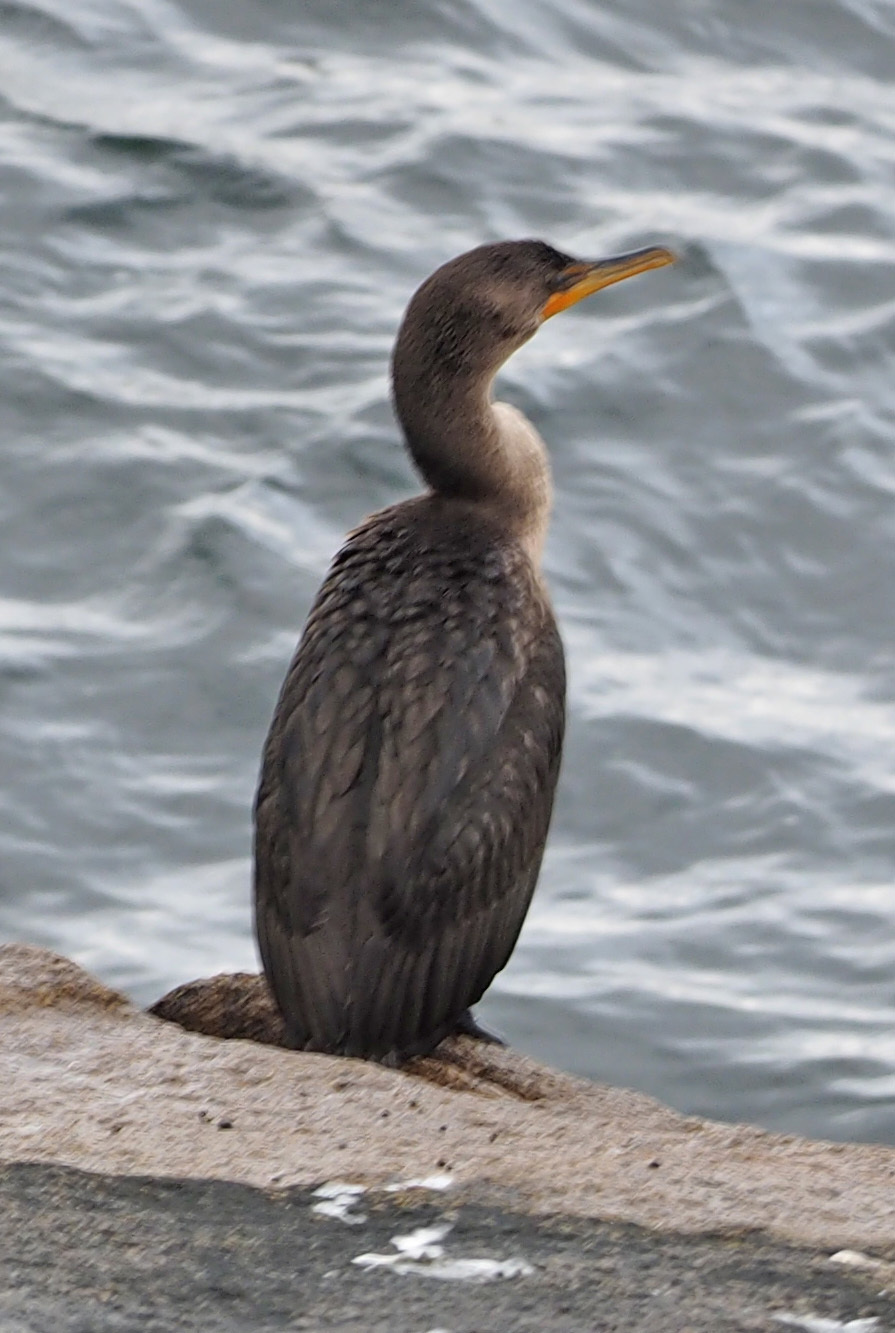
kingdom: Animalia
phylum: Chordata
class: Aves
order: Suliformes
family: Phalacrocoracidae
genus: Phalacrocorax
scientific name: Phalacrocorax auritus
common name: Double-crested cormorant
